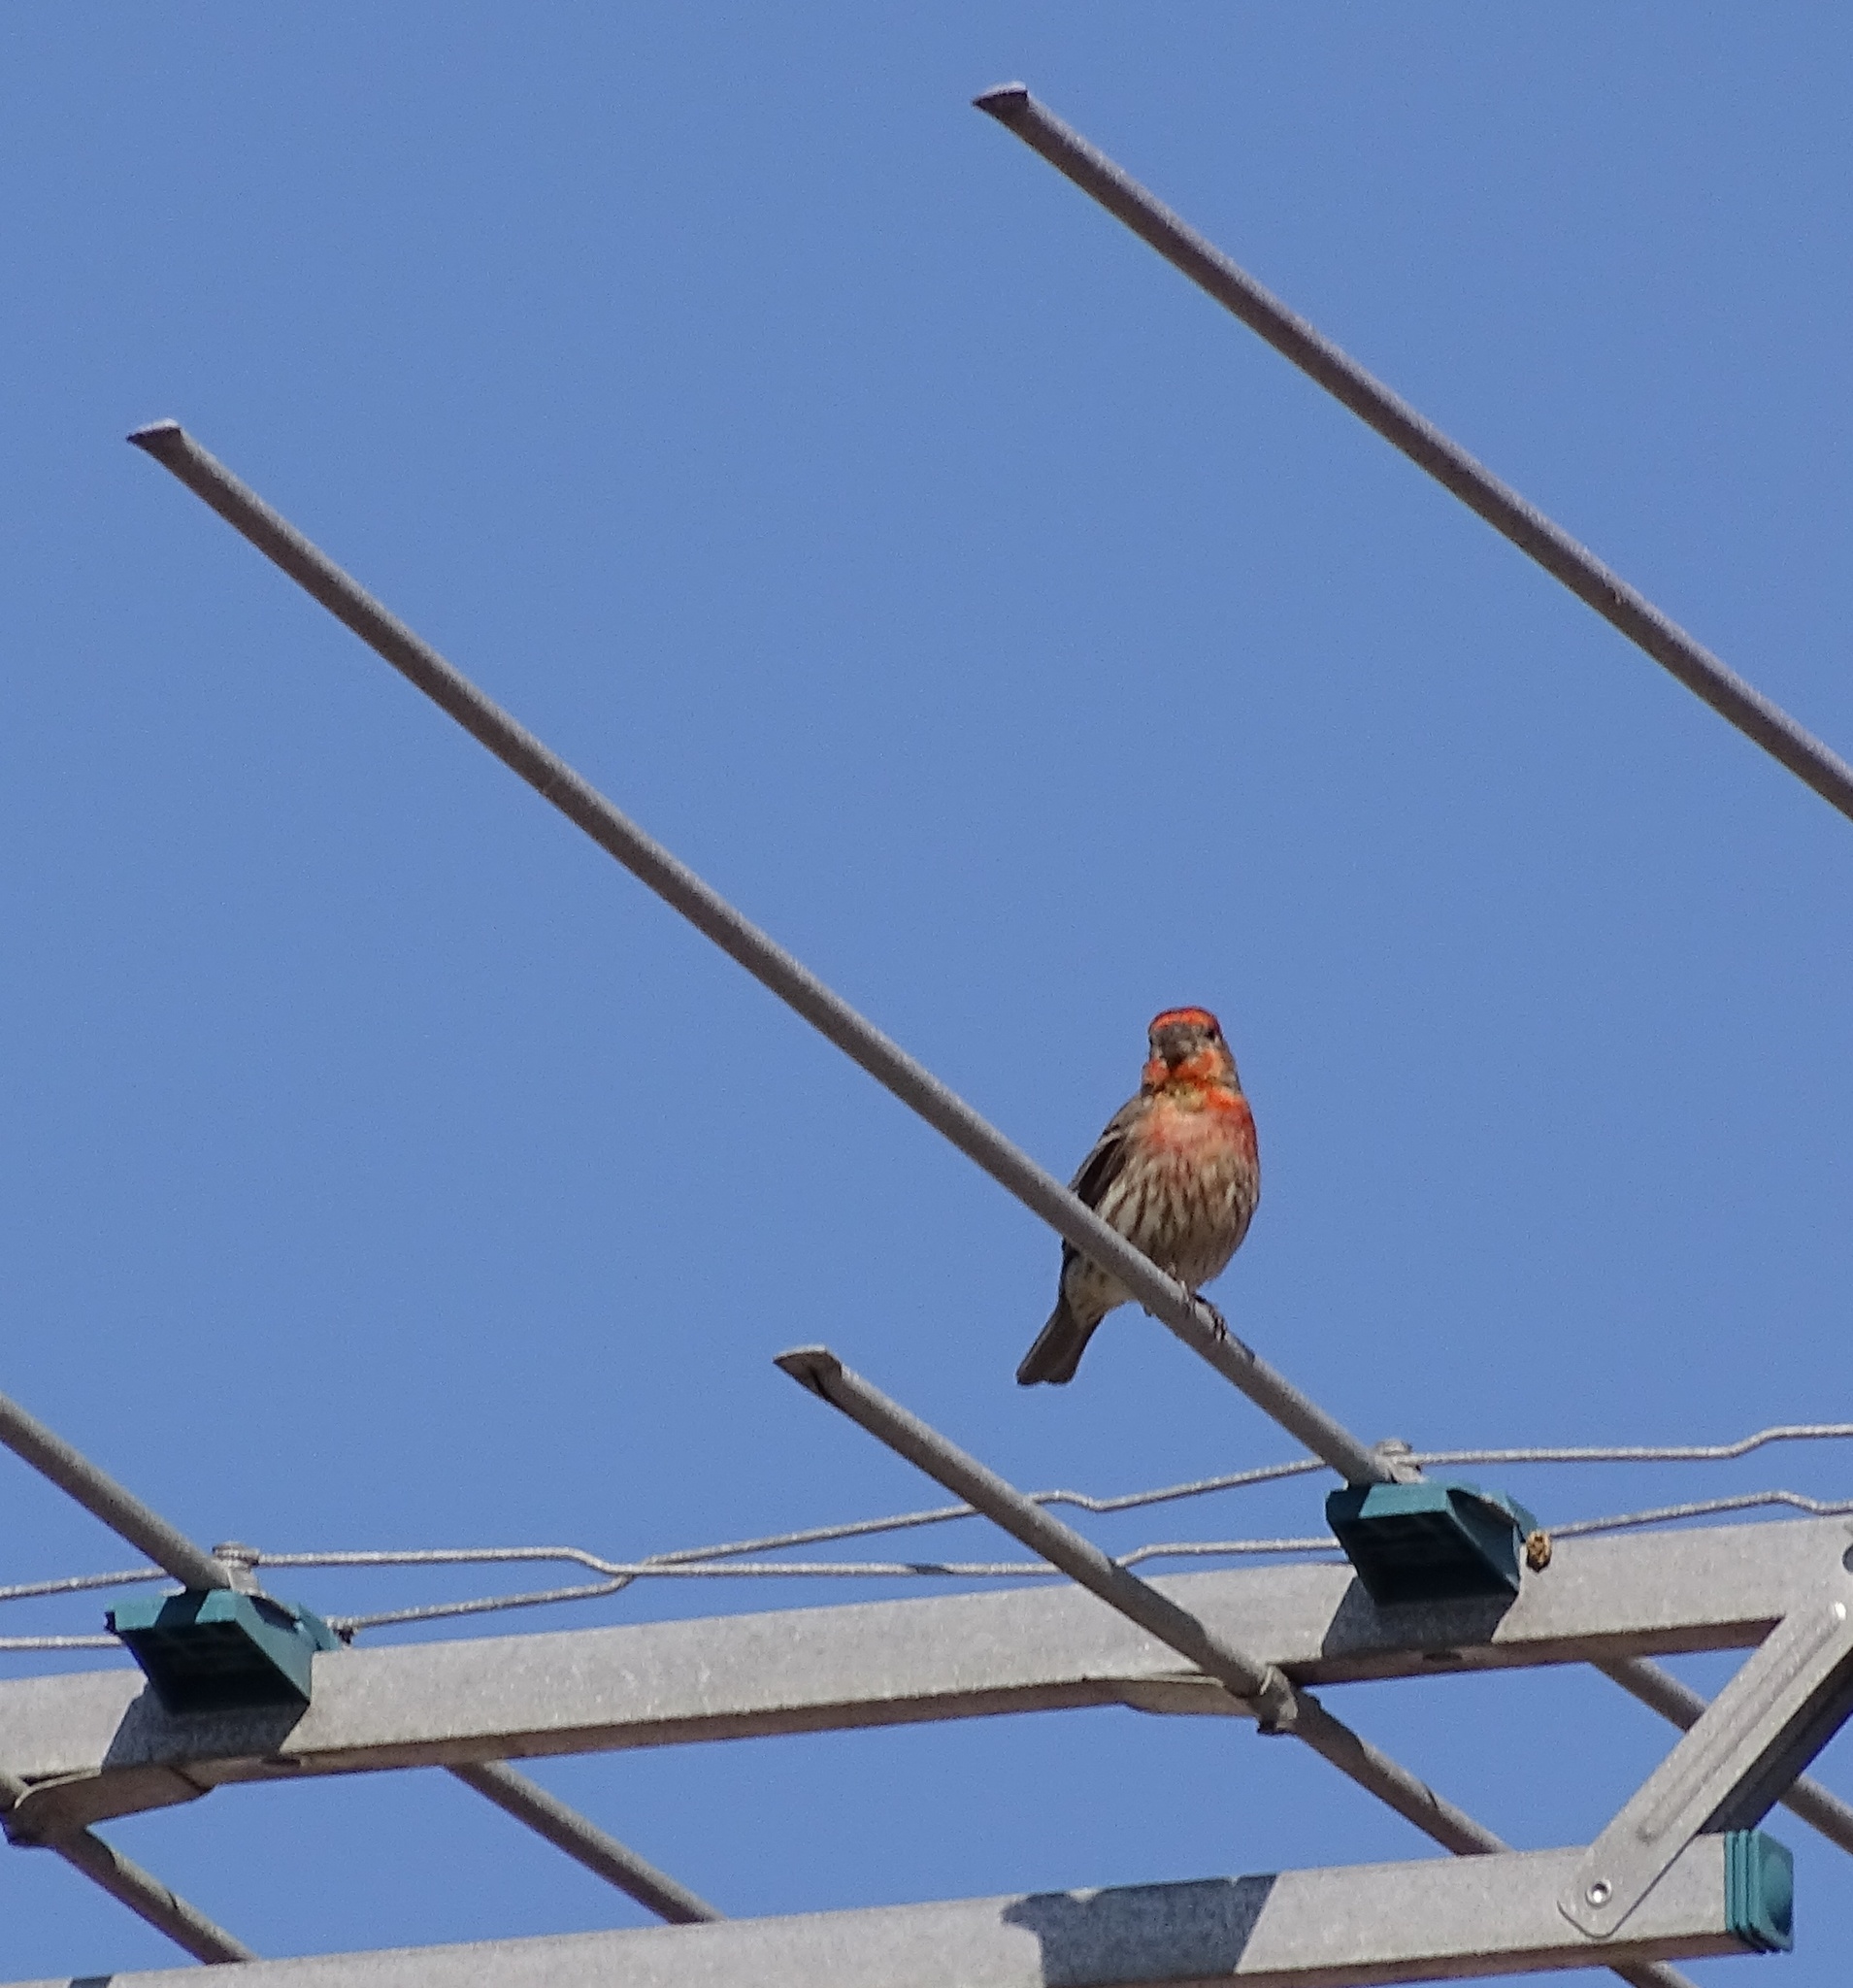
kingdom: Animalia
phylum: Chordata
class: Aves
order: Passeriformes
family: Fringillidae
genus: Haemorhous
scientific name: Haemorhous mexicanus
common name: House finch
